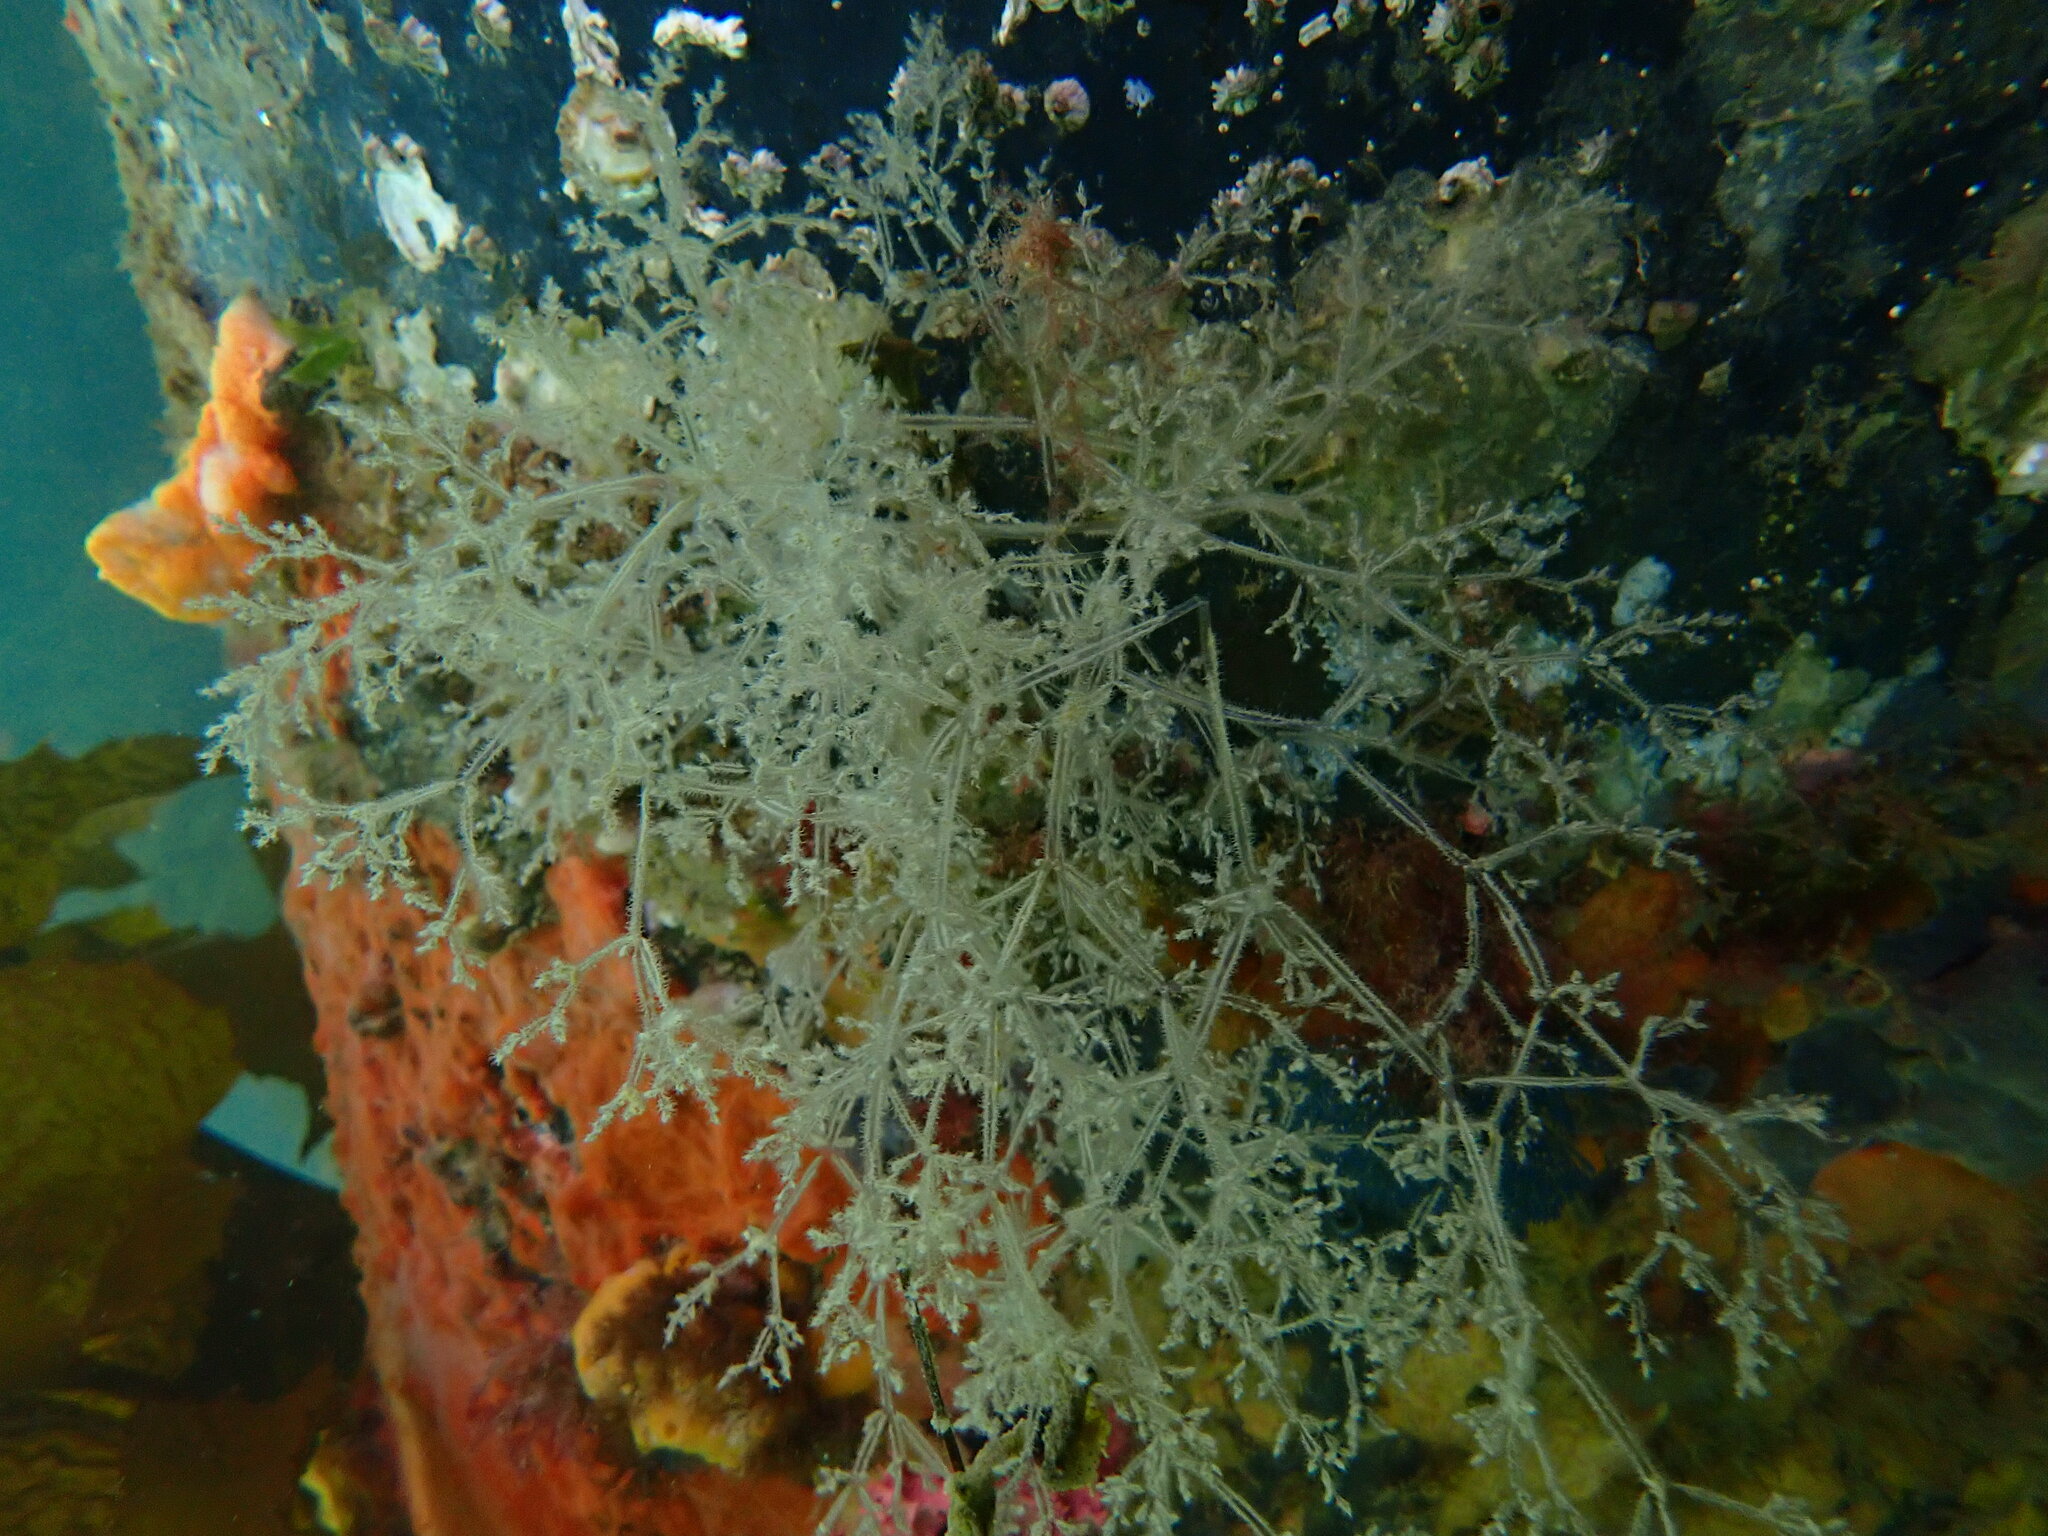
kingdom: Animalia
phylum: Bryozoa
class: Gymnolaemata
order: Ctenostomatida
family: Vesiculariidae
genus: Amathia
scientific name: Amathia verticillata
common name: Whorled zoobotryon
